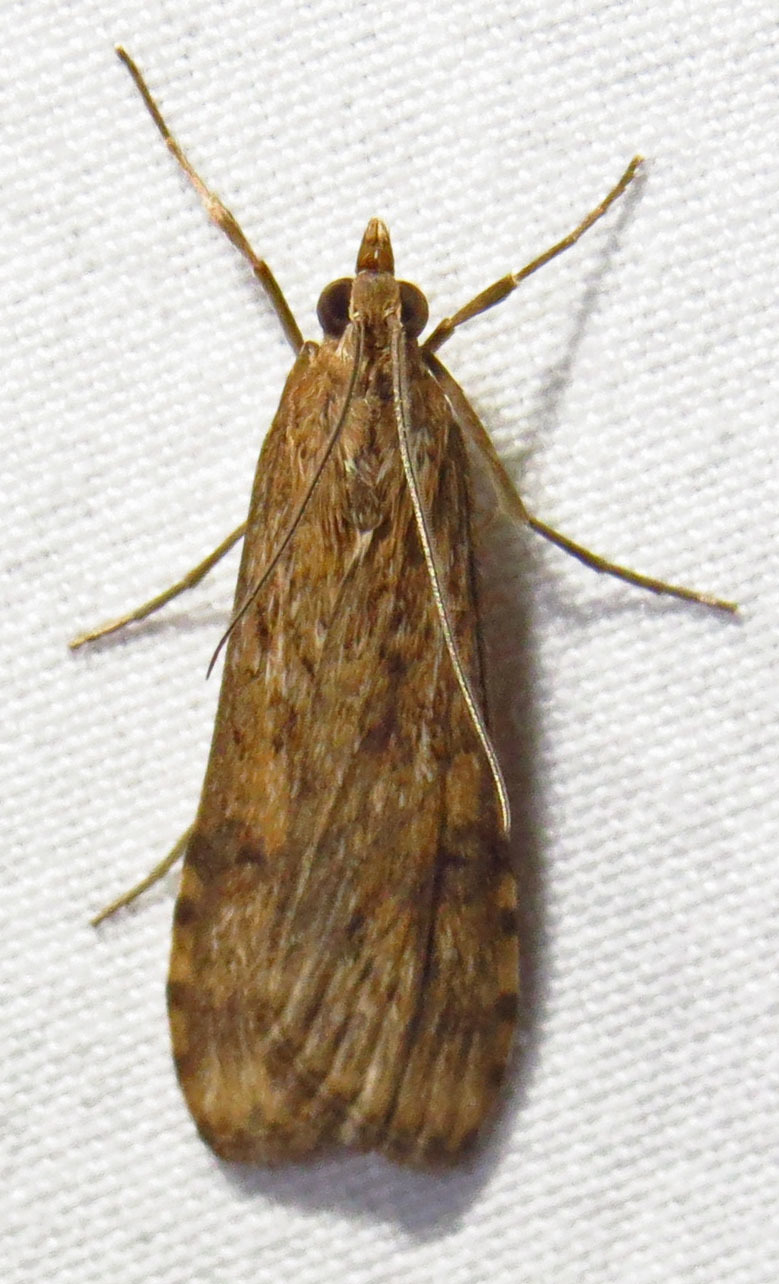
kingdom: Animalia
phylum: Arthropoda
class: Insecta
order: Lepidoptera
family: Crambidae
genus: Nomophila
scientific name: Nomophila nearctica
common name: American rush veneer
